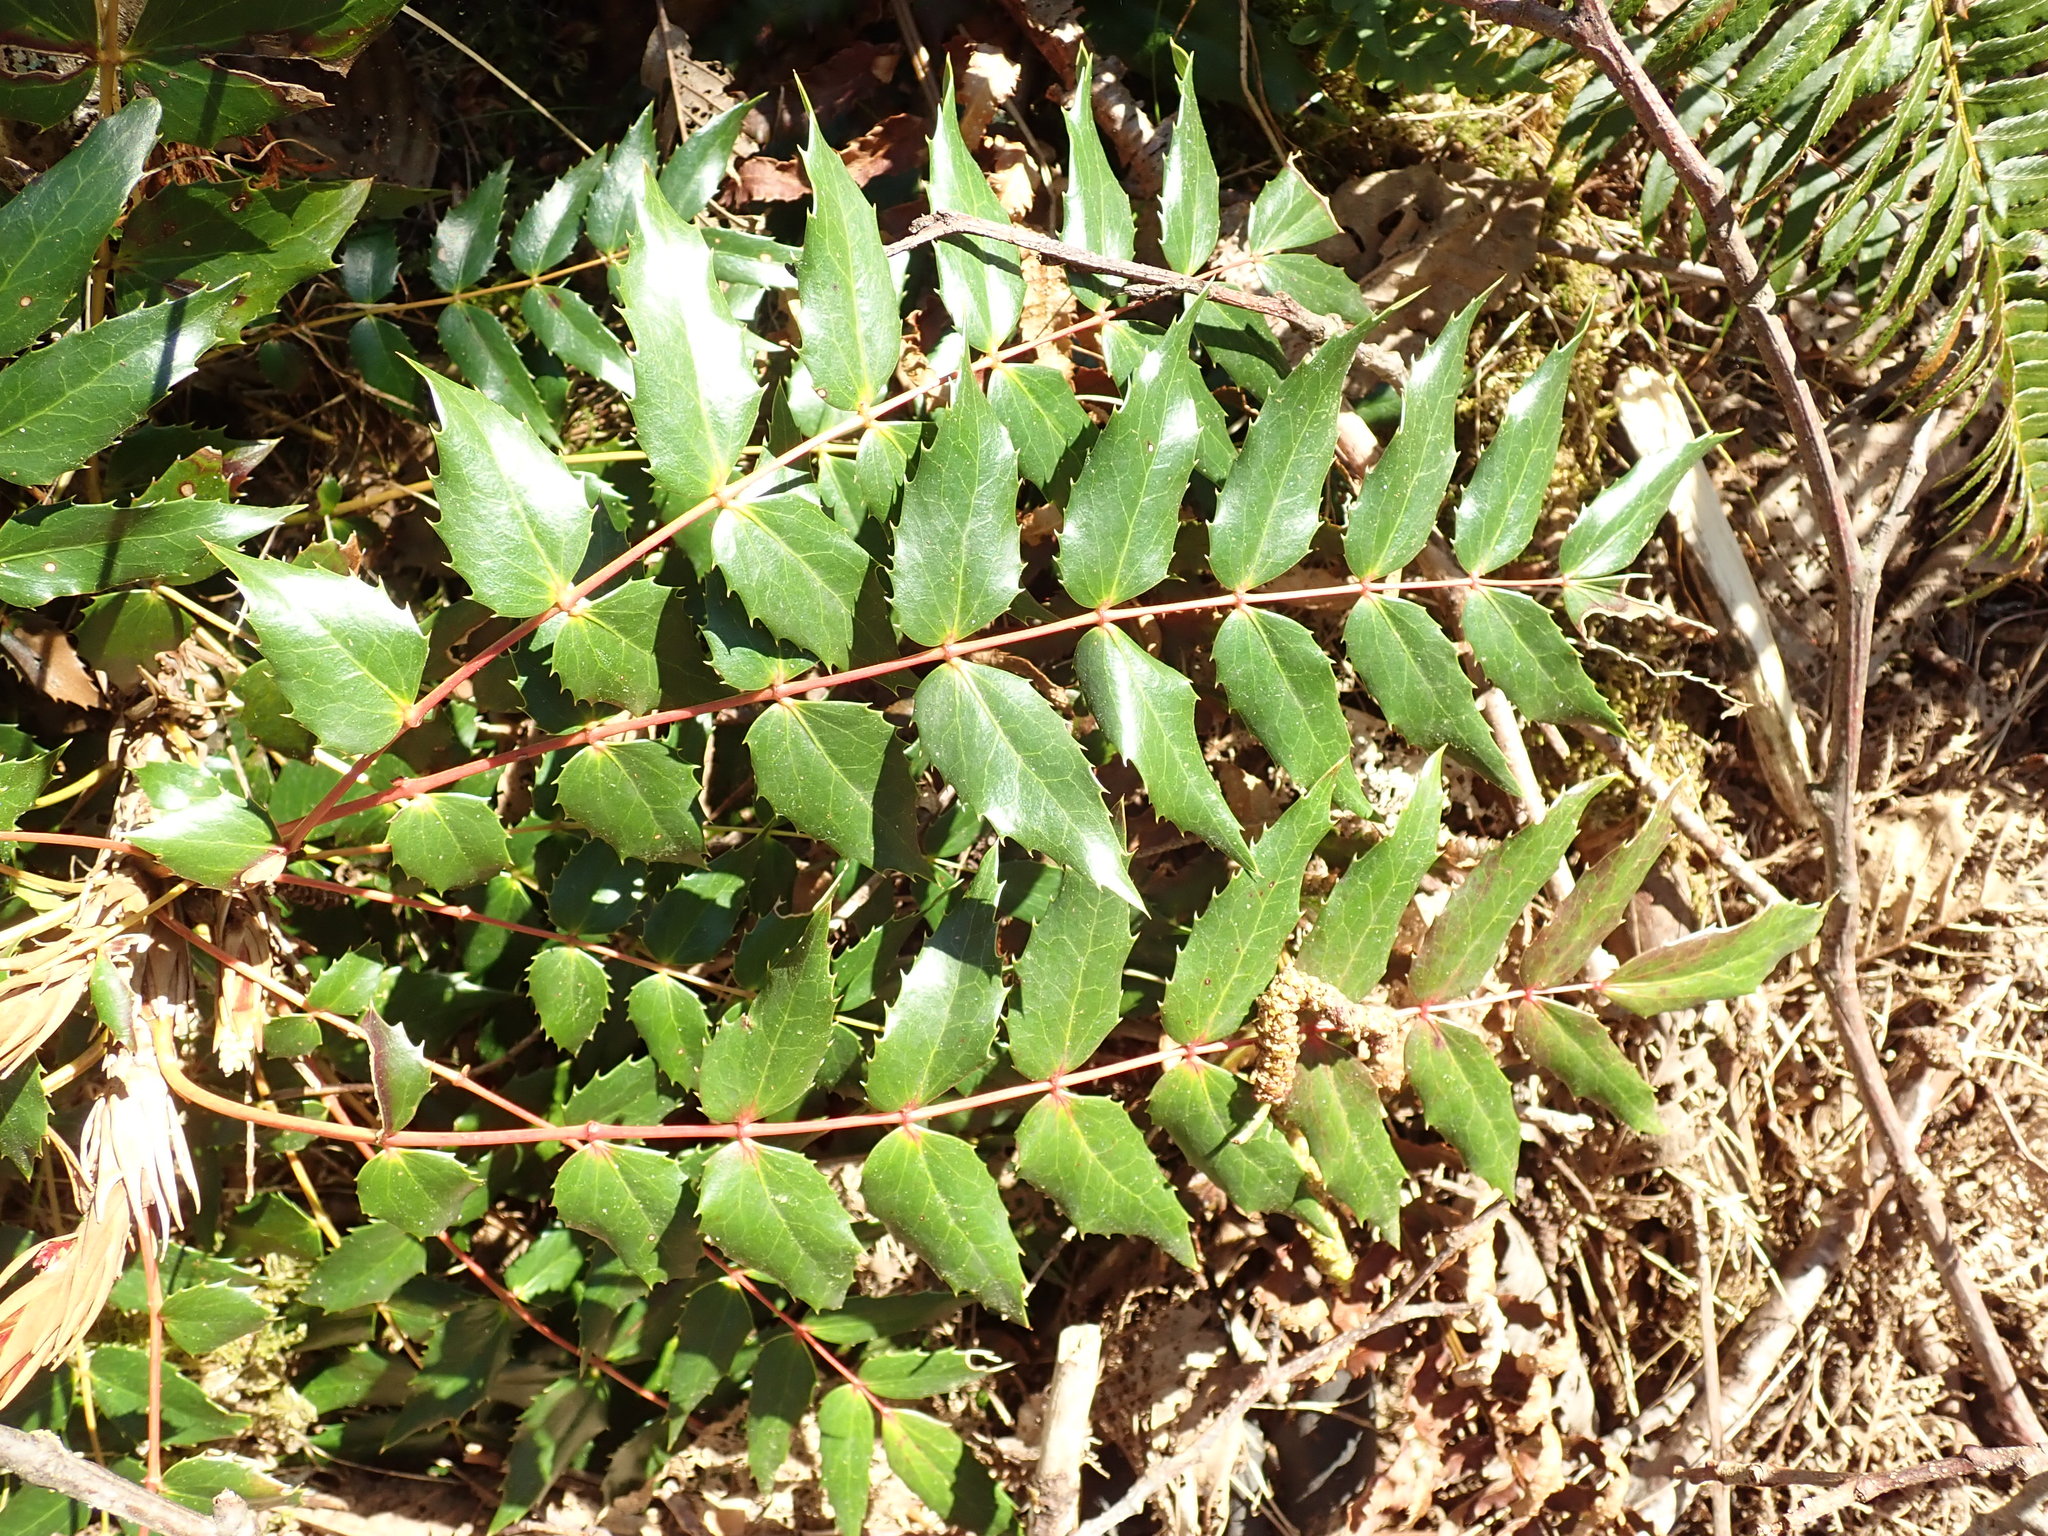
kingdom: Plantae
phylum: Tracheophyta
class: Magnoliopsida
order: Ranunculales
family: Berberidaceae
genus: Mahonia
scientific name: Mahonia nervosa
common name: Cascade oregon-grape
